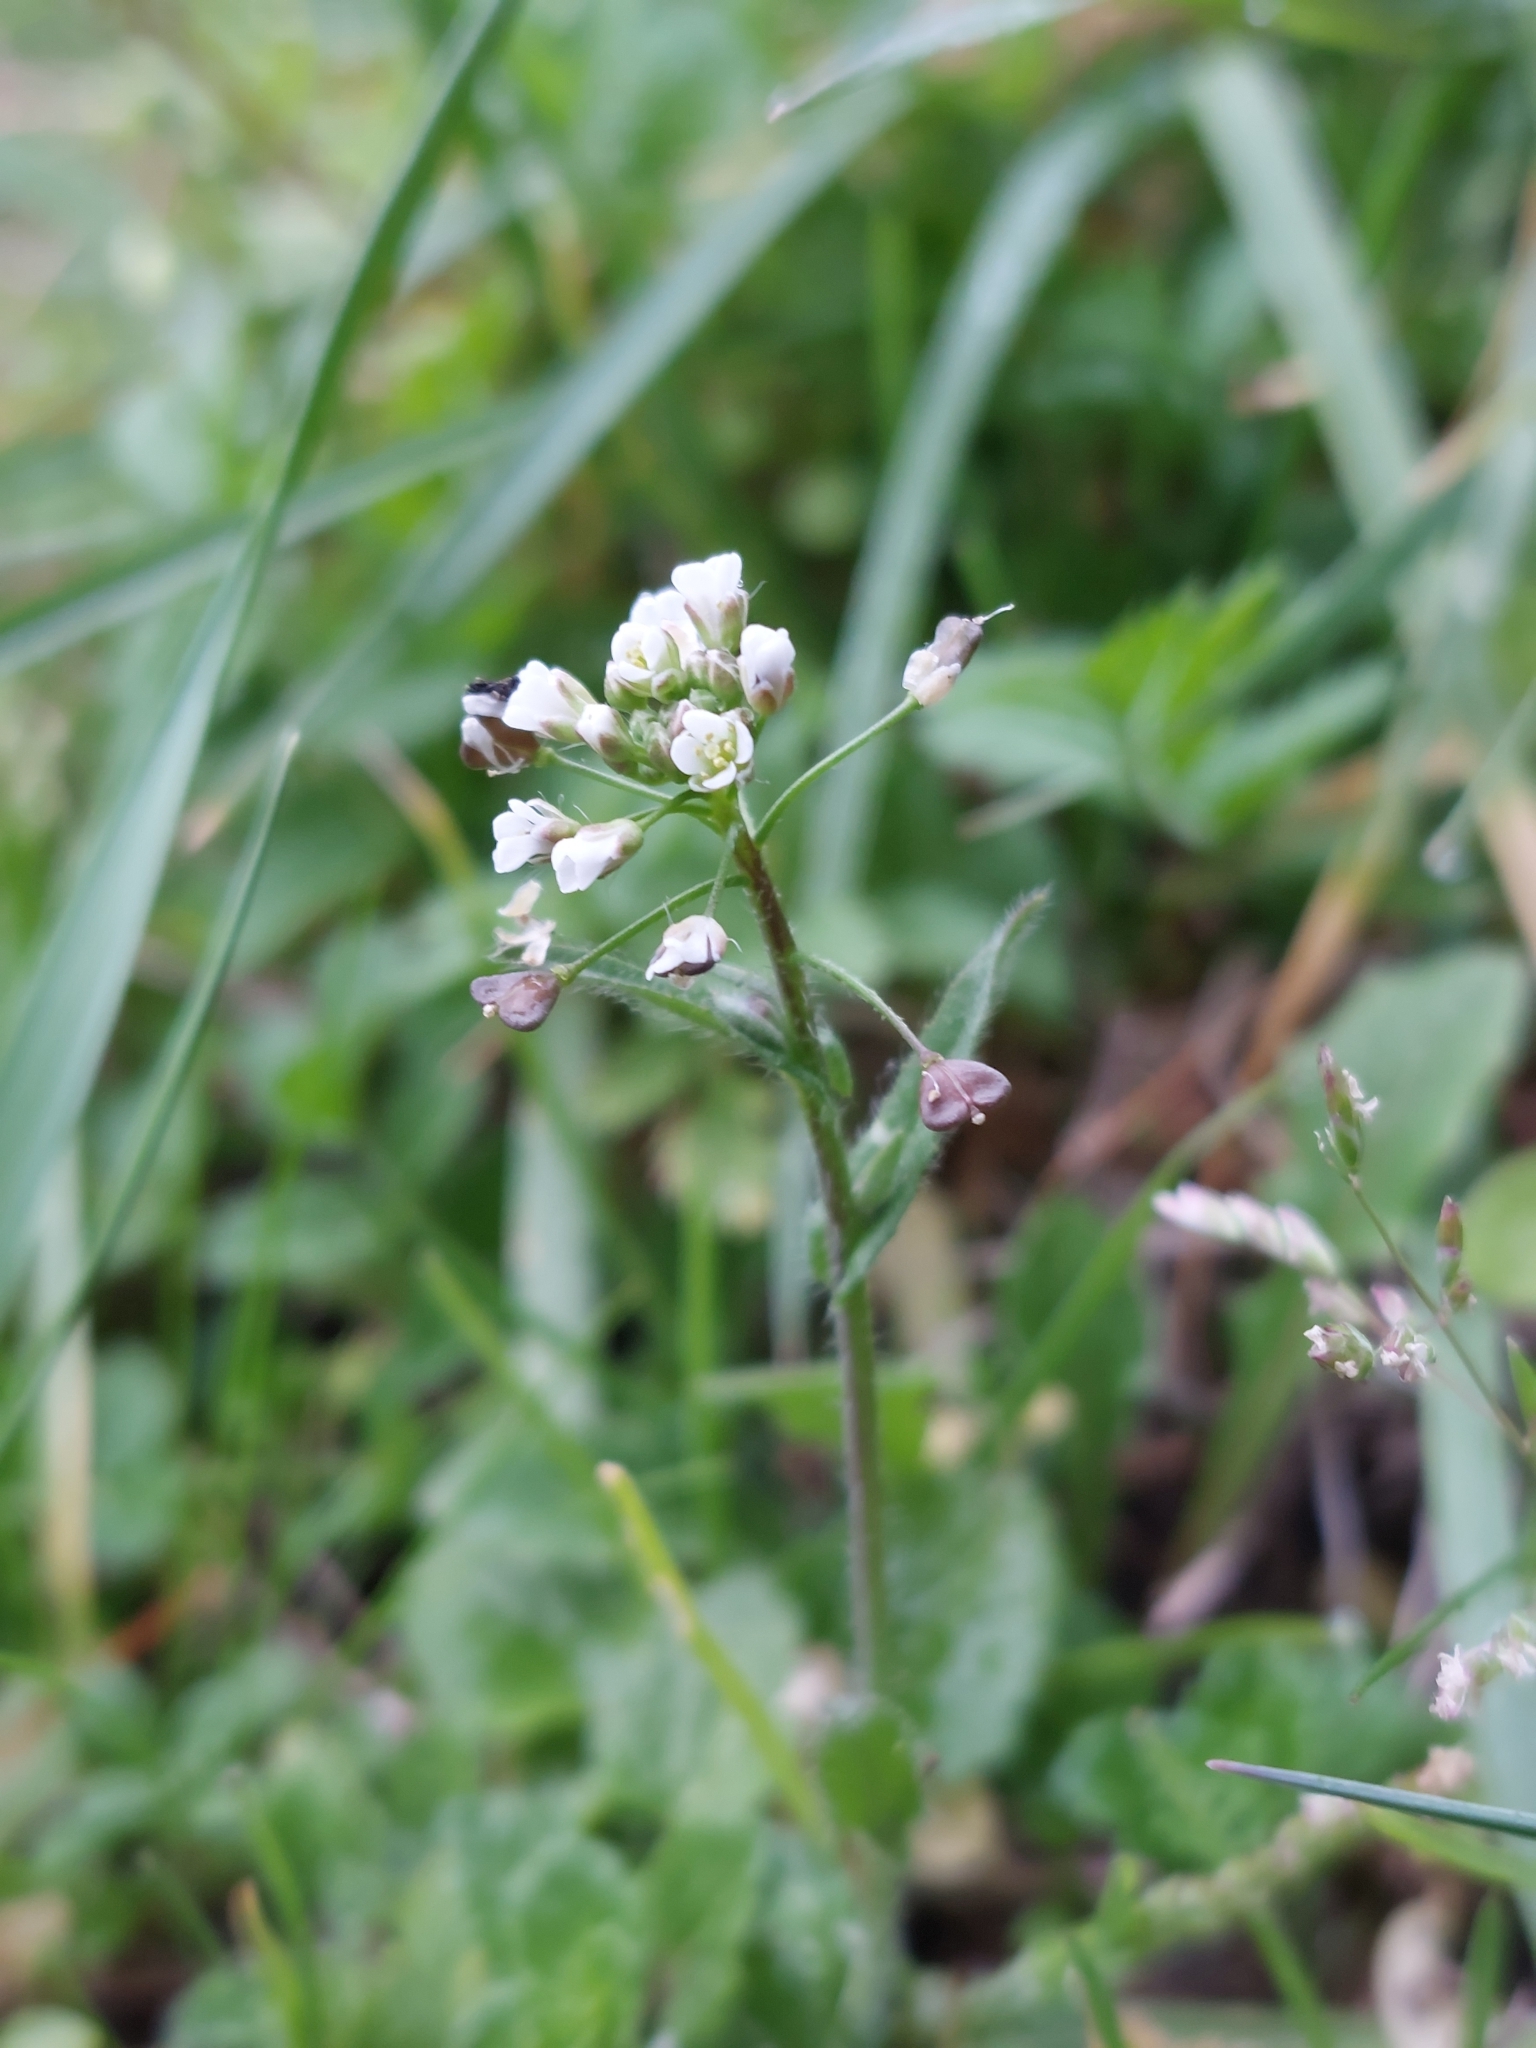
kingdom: Plantae
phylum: Tracheophyta
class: Magnoliopsida
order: Brassicales
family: Brassicaceae
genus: Capsella
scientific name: Capsella bursa-pastoris
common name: Shepherd's purse
